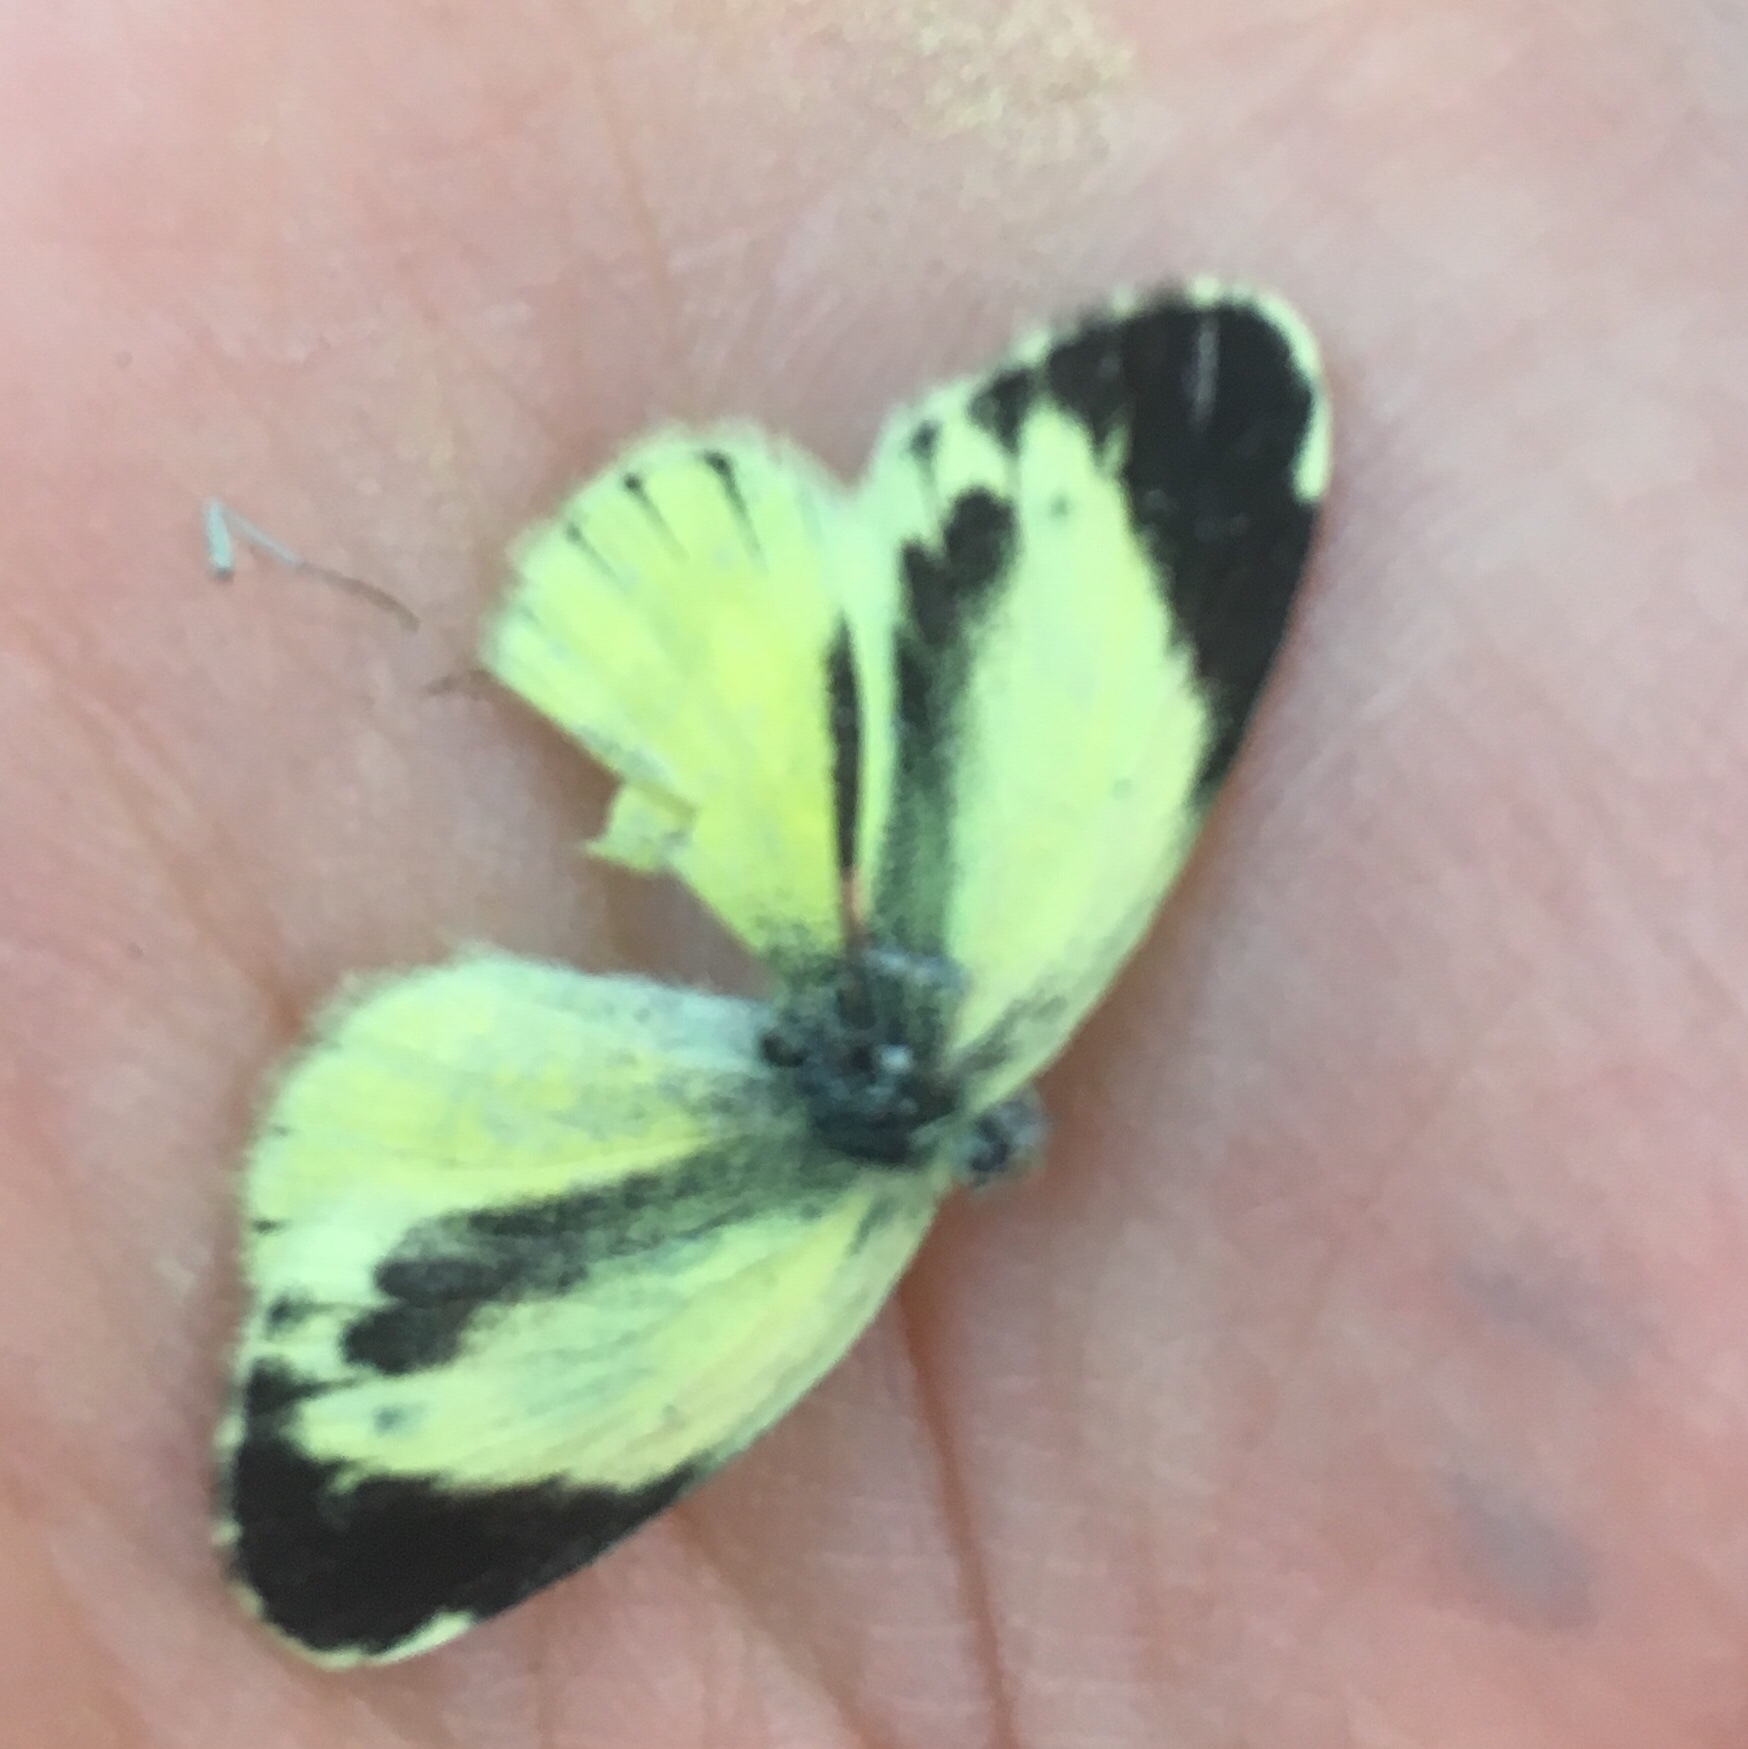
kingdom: Animalia
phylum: Arthropoda
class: Insecta
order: Lepidoptera
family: Pieridae
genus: Nathalis
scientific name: Nathalis iole
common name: Dainty sulphur
